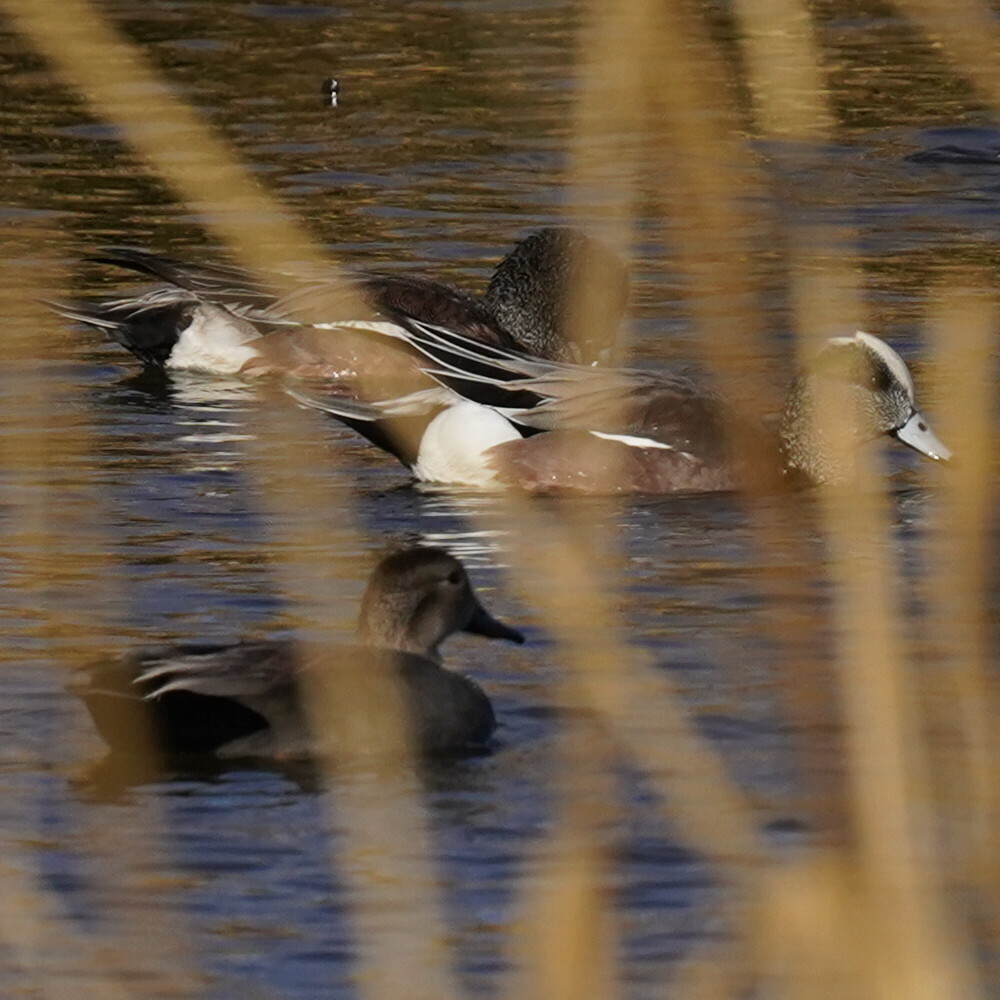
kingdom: Animalia
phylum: Chordata
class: Aves
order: Anseriformes
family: Anatidae
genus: Mareca
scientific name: Mareca americana
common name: American wigeon
